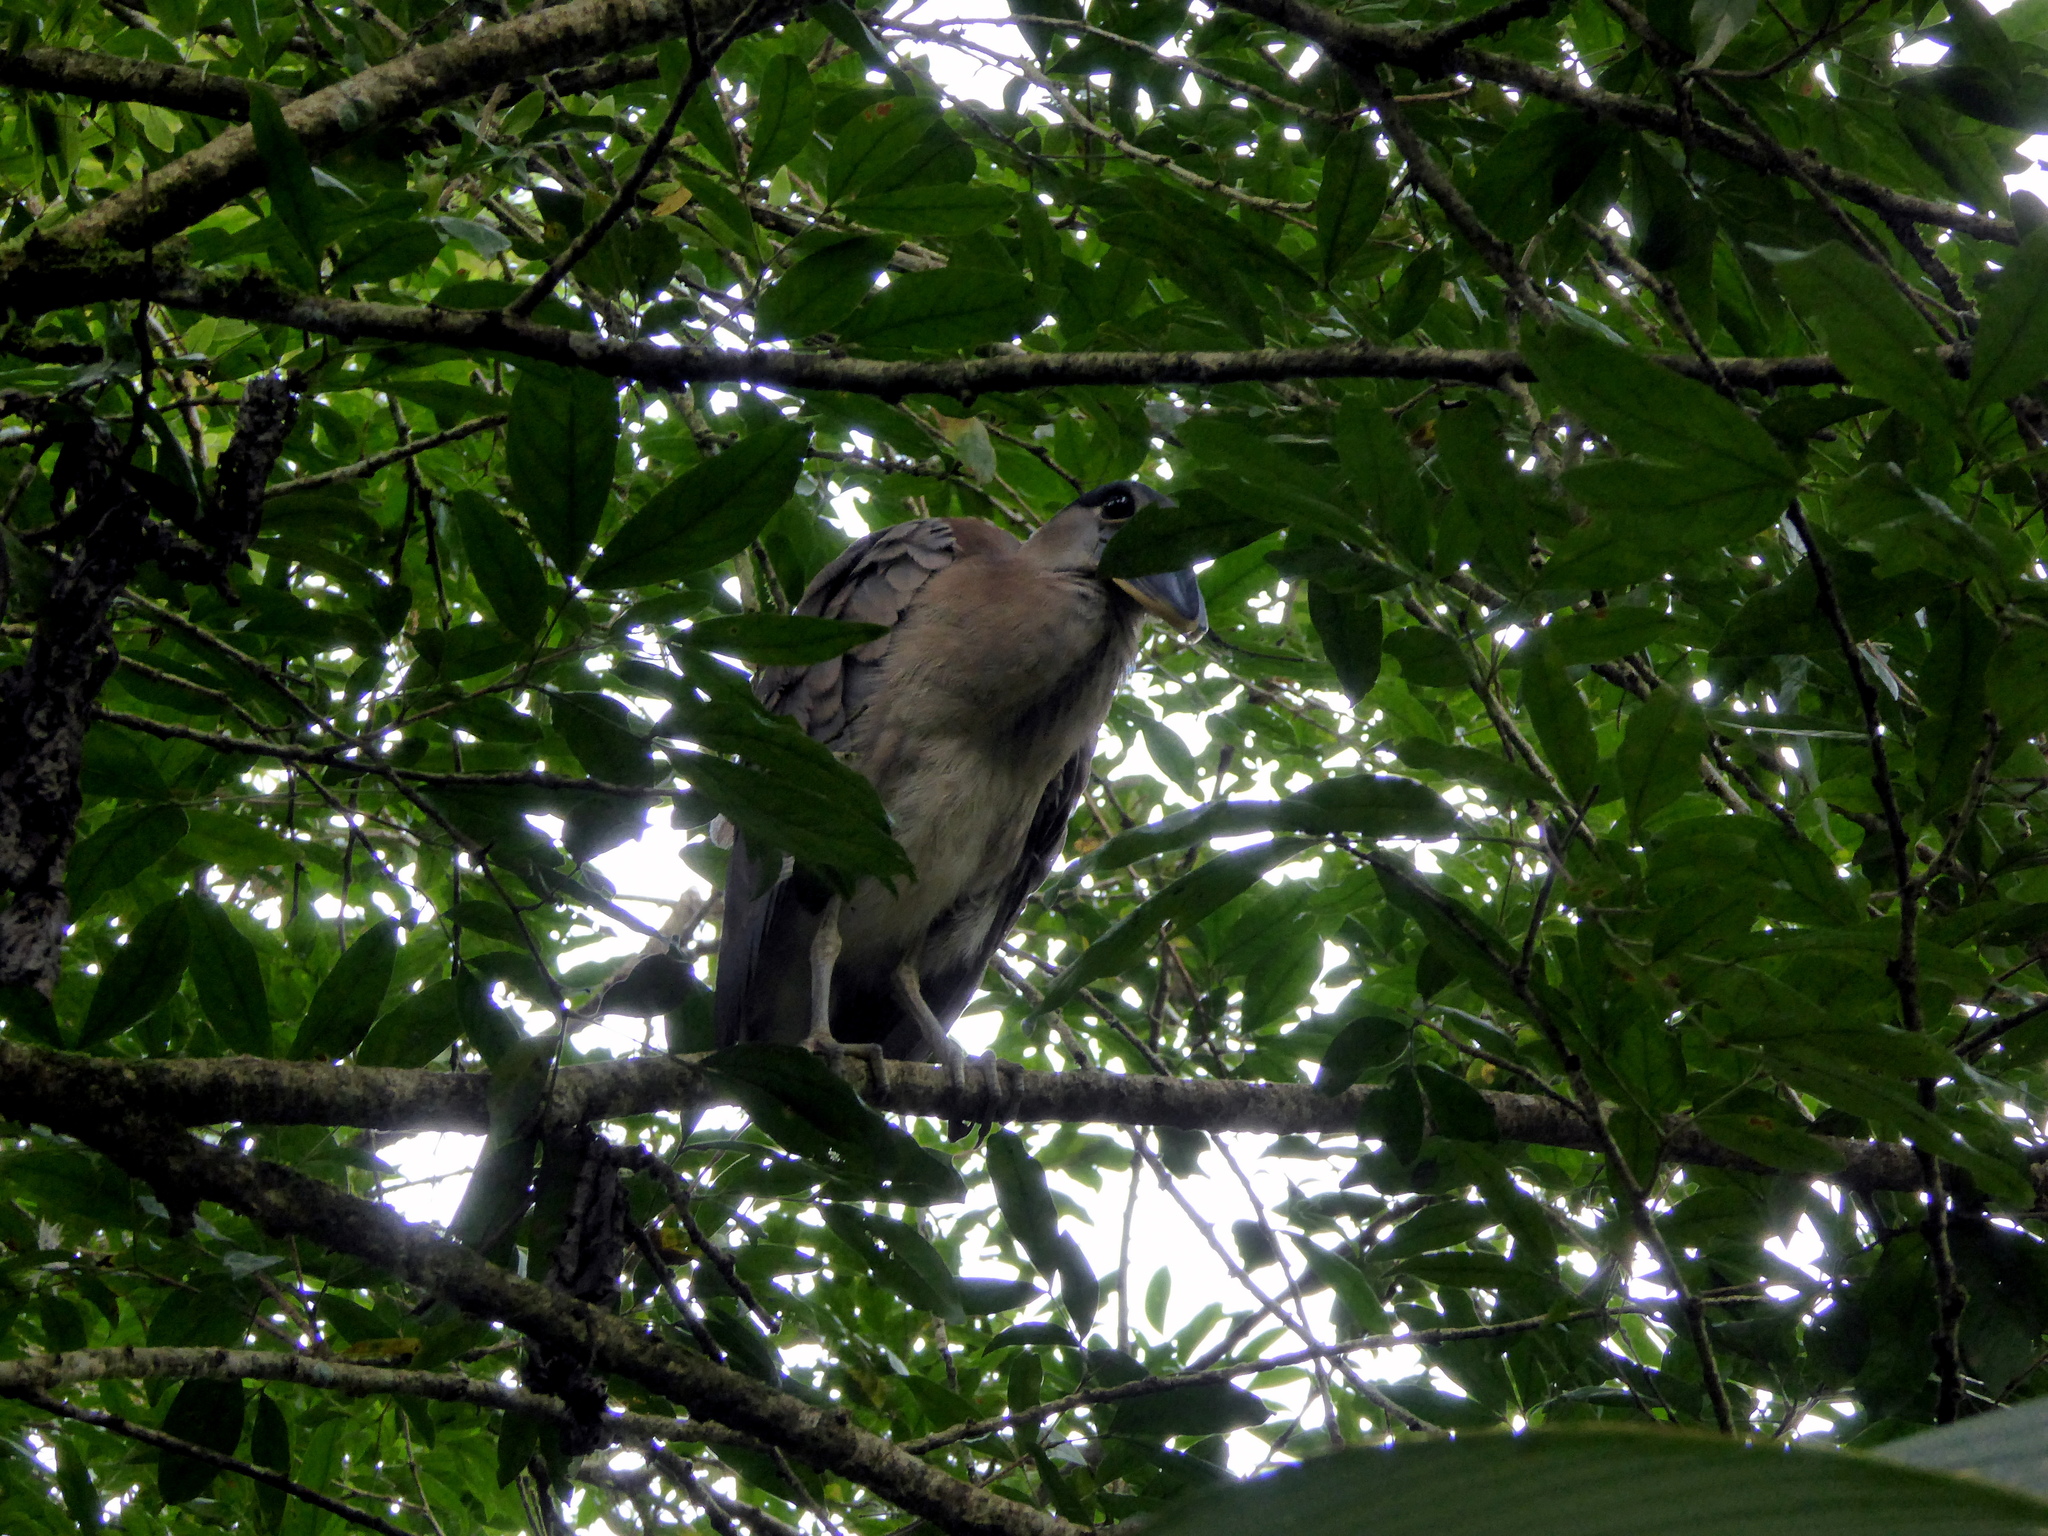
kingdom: Animalia
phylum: Chordata
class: Aves
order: Pelecaniformes
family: Ardeidae
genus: Cochlearius
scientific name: Cochlearius cochlearius
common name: Boat-billed heron
